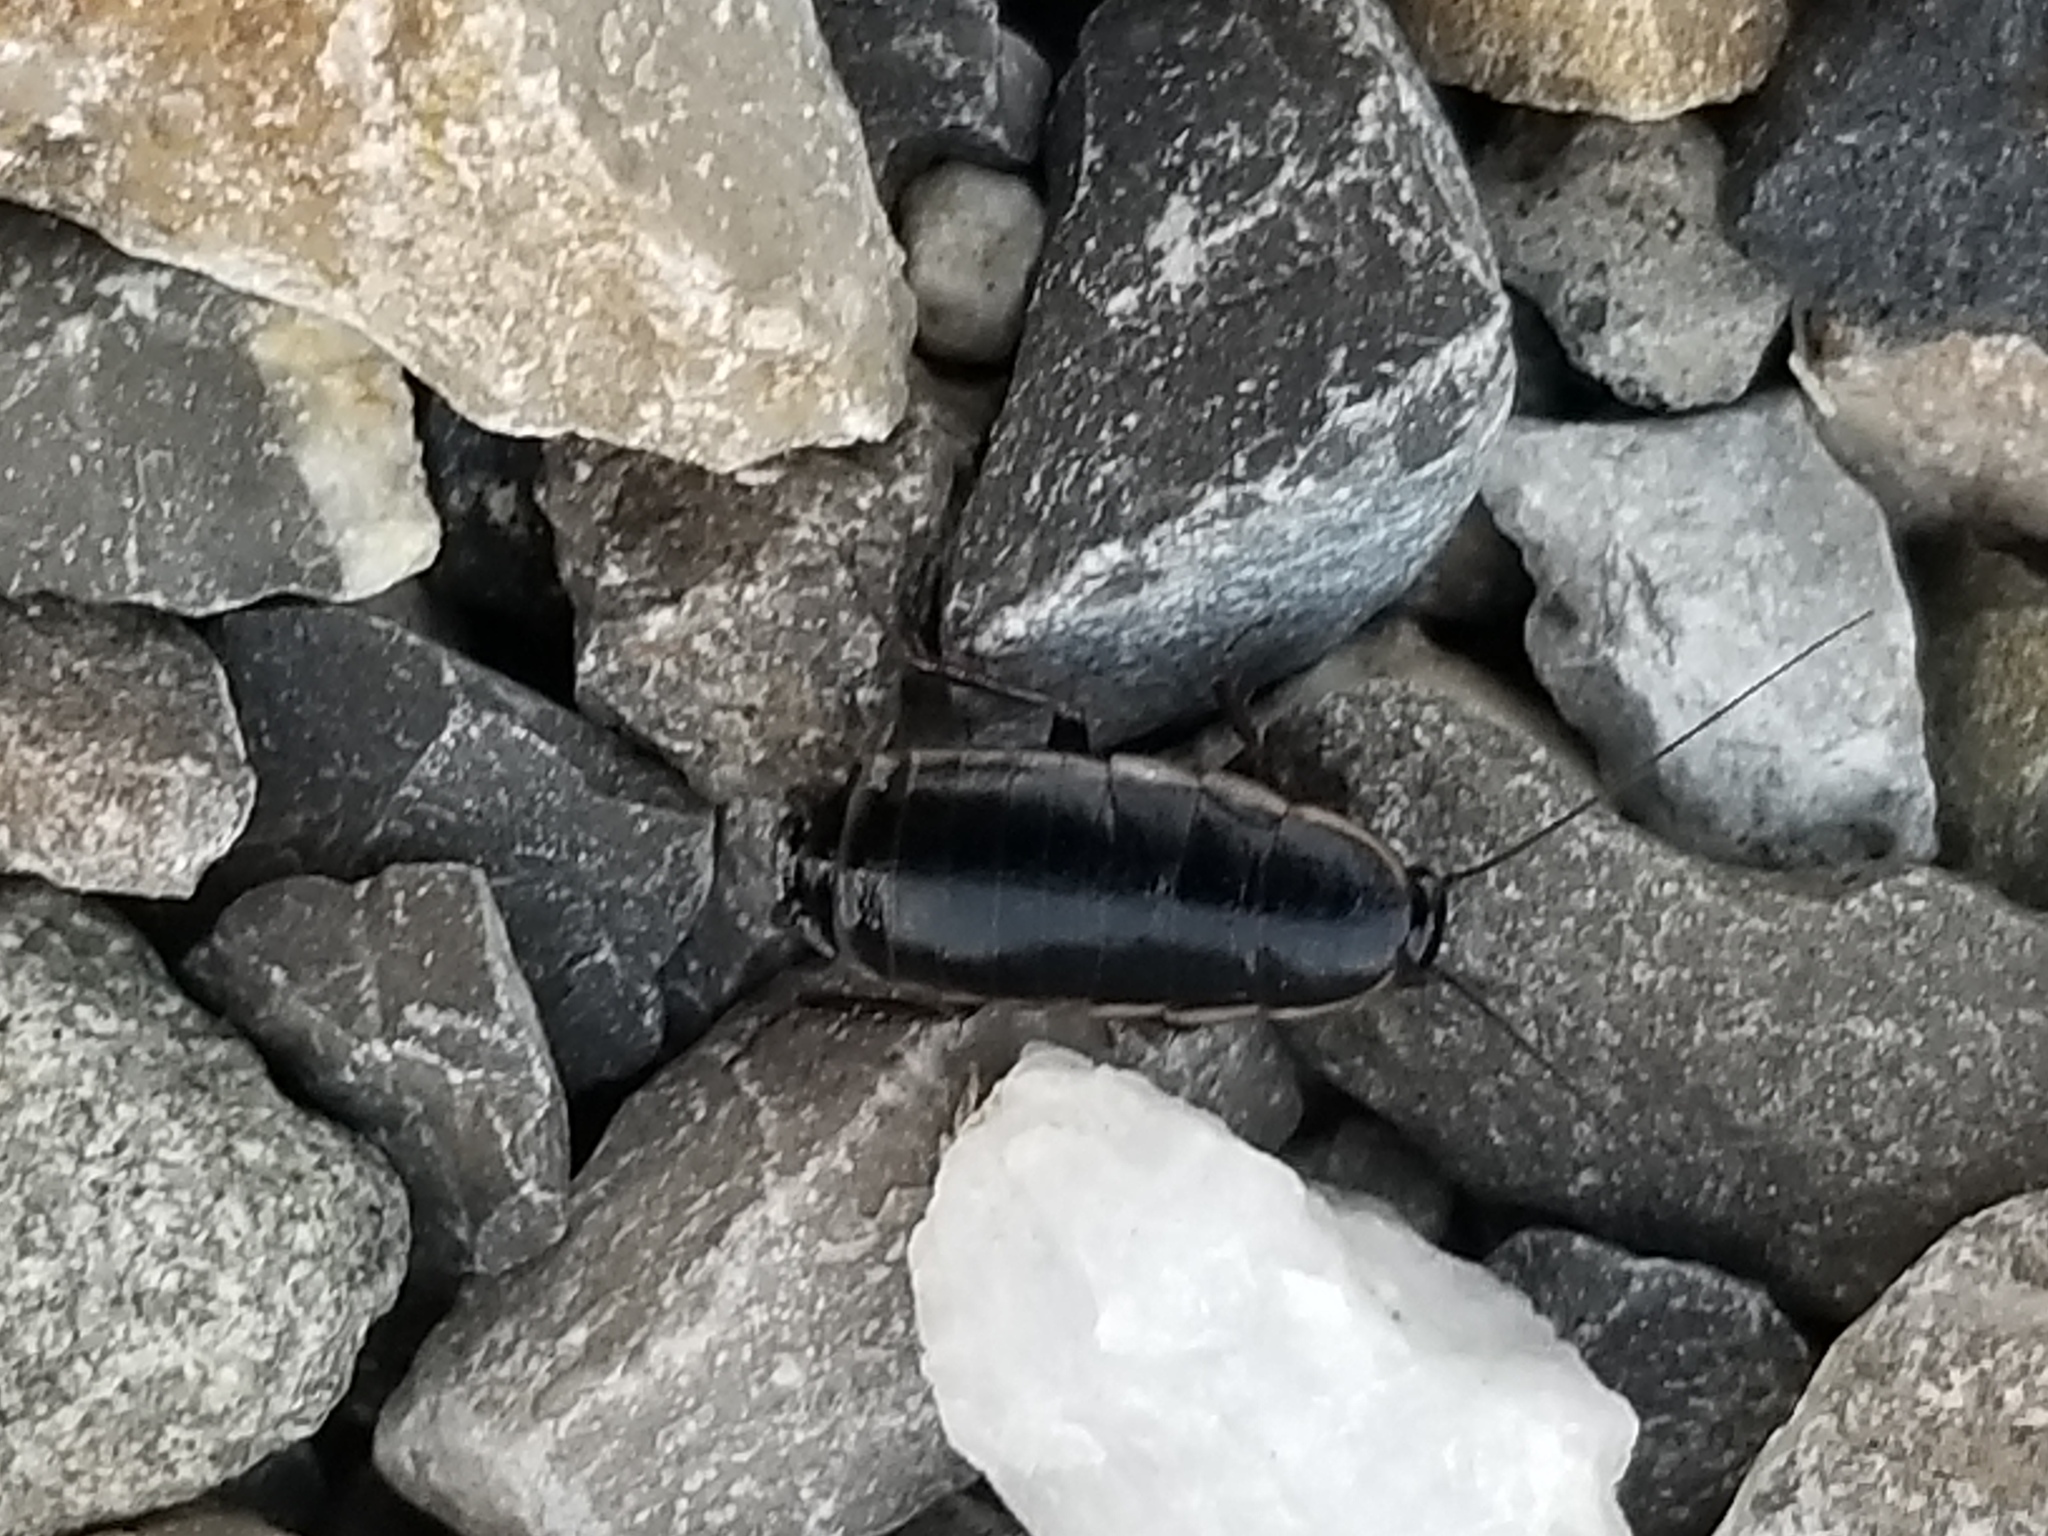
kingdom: Animalia
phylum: Arthropoda
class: Insecta
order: Blattodea
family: Ectobiidae
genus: Loboptera
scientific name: Loboptera decipiens
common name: Lobe-winged cockroach
